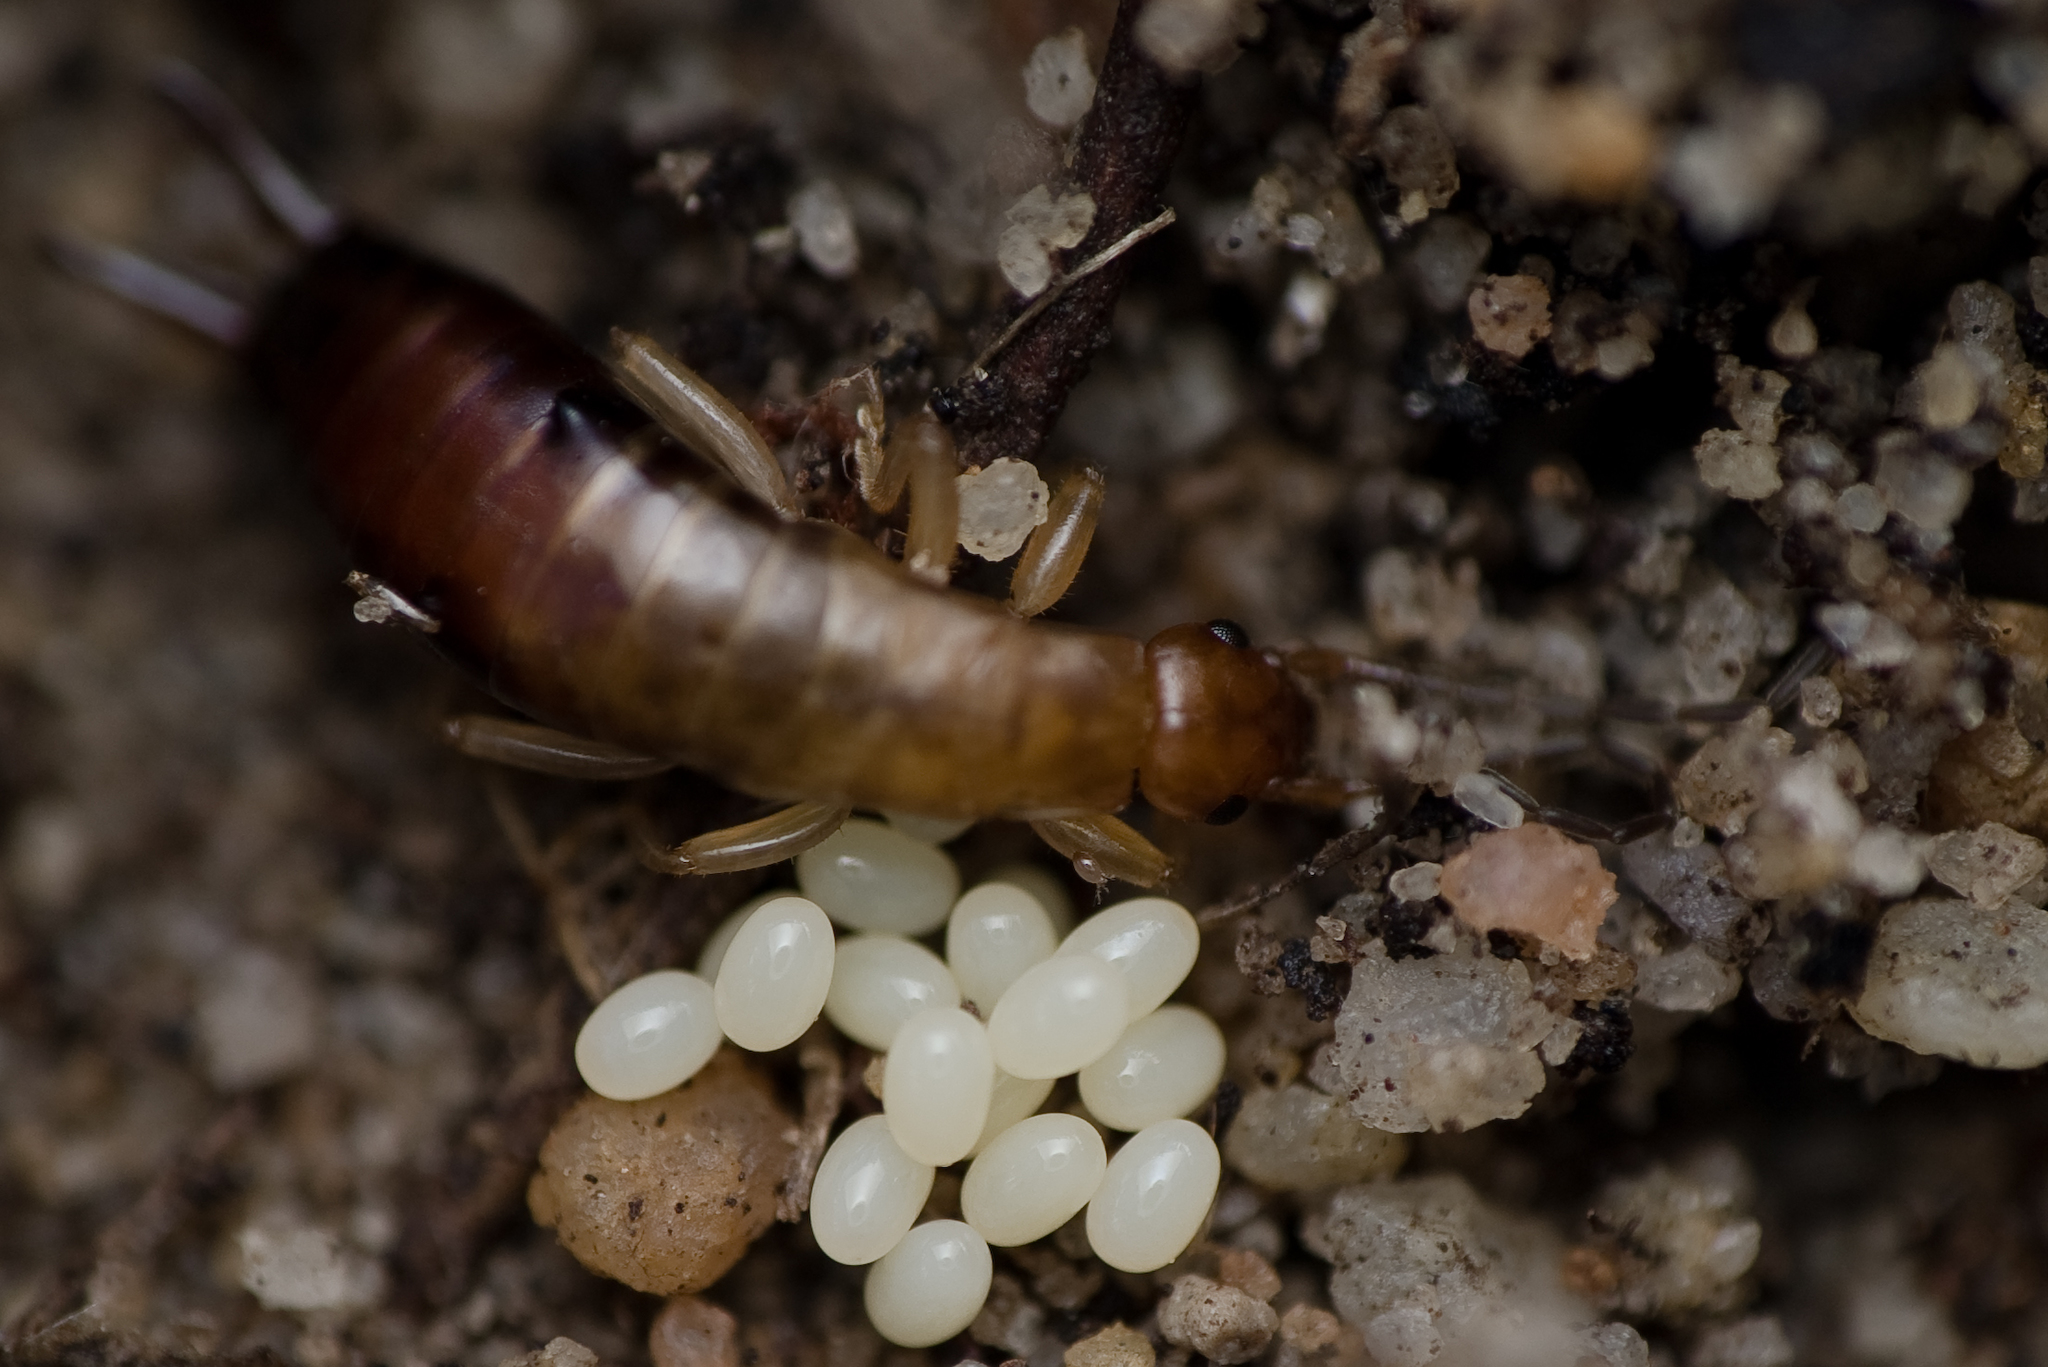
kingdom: Animalia
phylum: Arthropoda
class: Insecta
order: Dermaptera
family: Forficulidae
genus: Proforficula
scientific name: Proforficula promontorii
